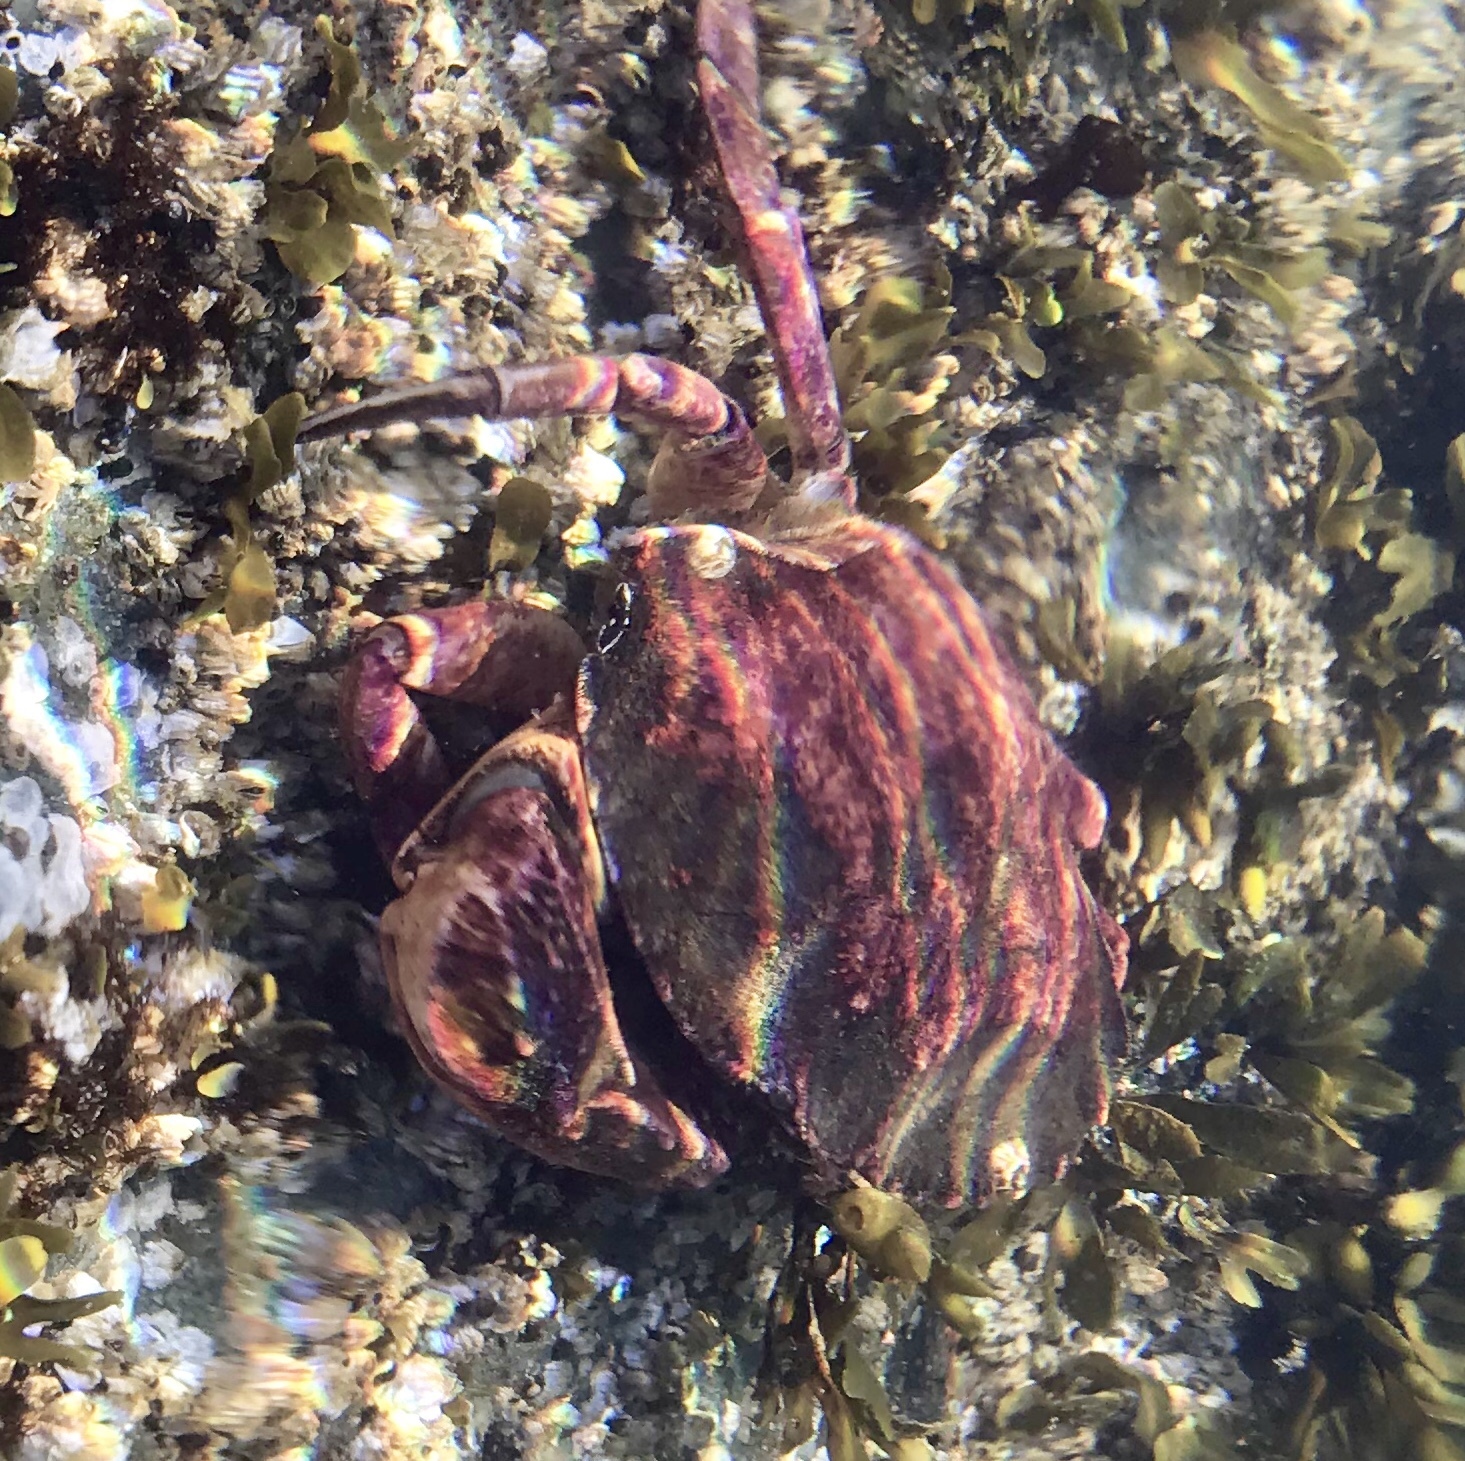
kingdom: Animalia
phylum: Arthropoda
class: Malacostraca
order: Decapoda
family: Cancridae
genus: Cancer
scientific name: Cancer productus
